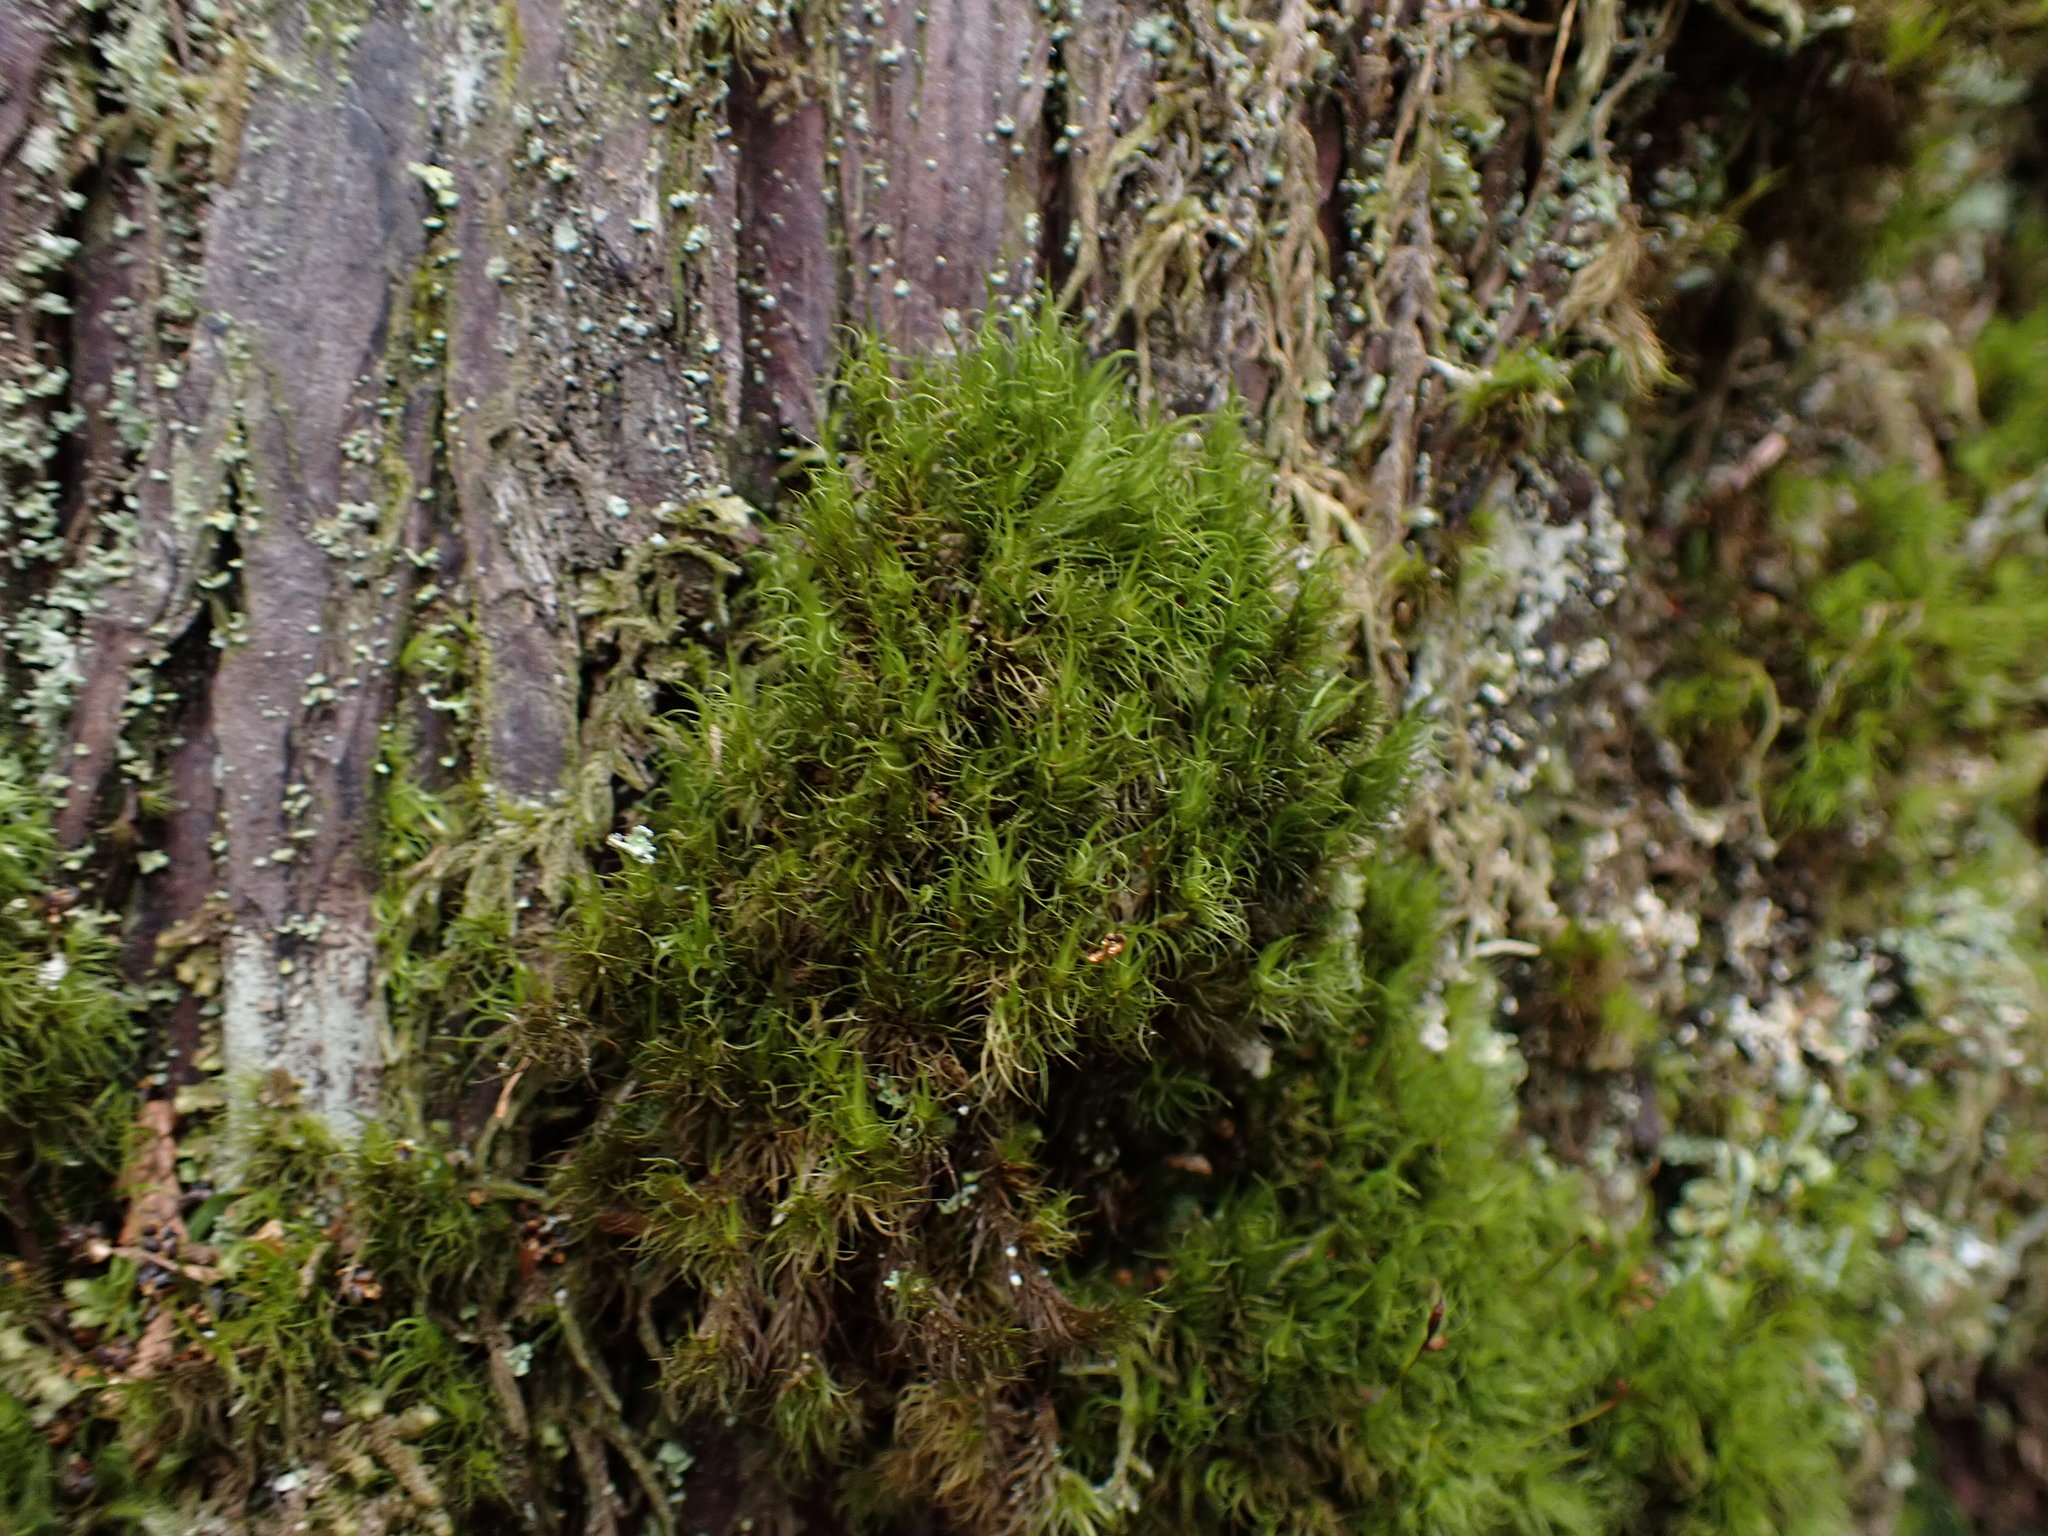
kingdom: Plantae
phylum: Bryophyta
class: Bryopsida
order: Dicranales
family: Dicranaceae
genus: Dicranum
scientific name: Dicranum fuscescens
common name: Curly heron's-bill moss
